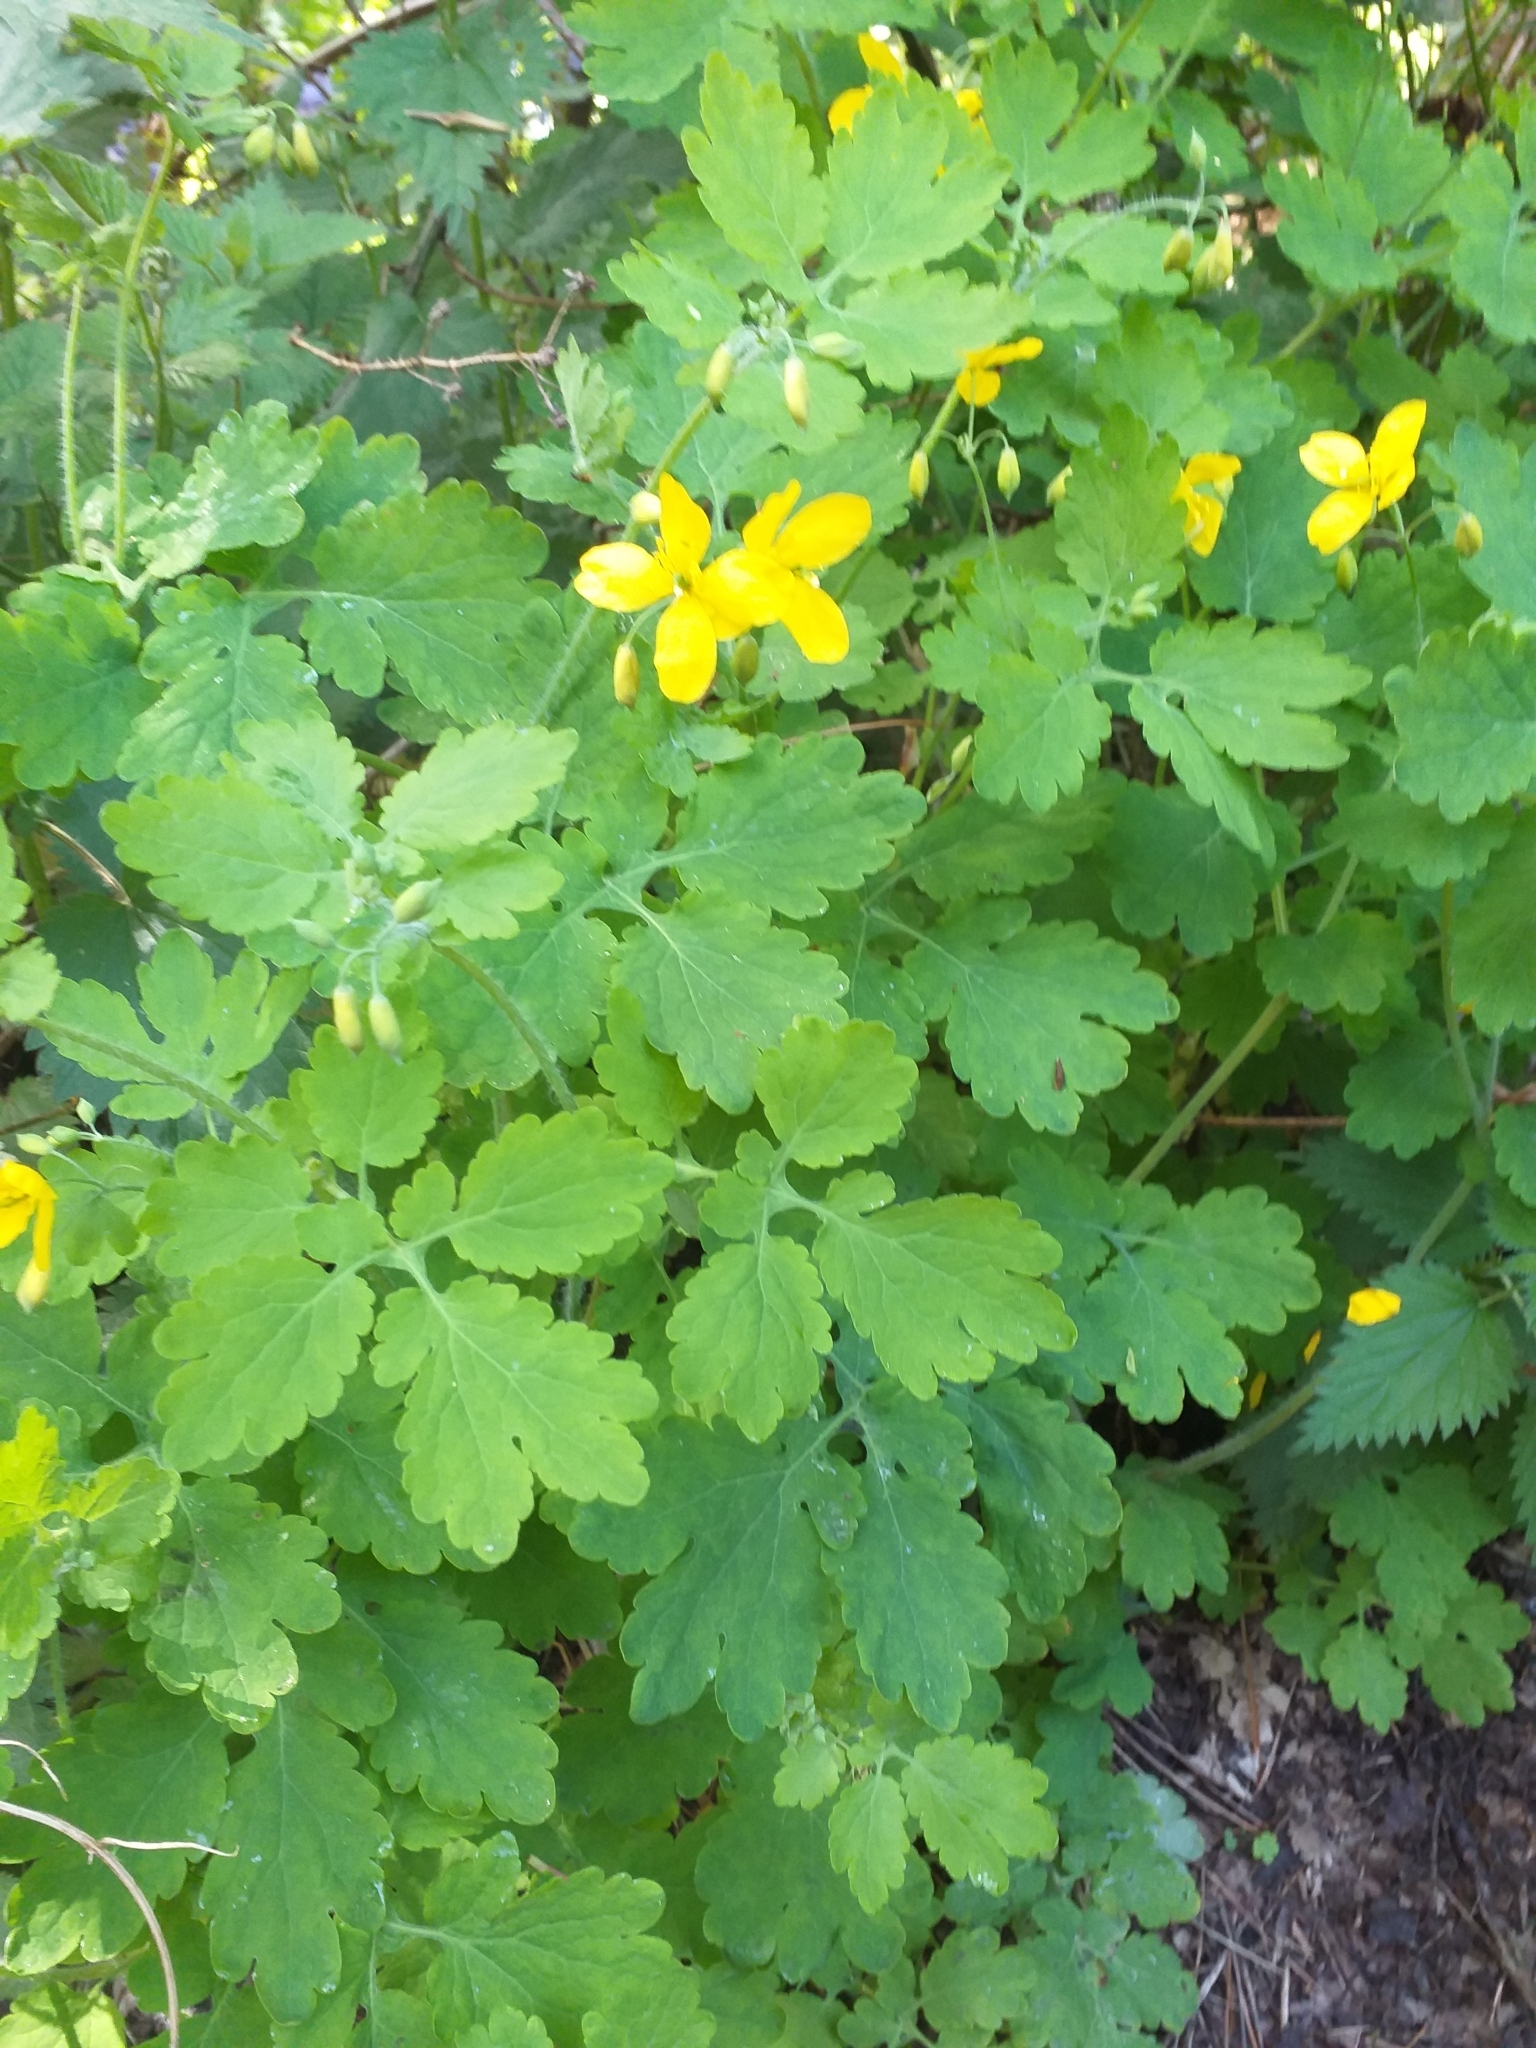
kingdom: Plantae
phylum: Tracheophyta
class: Magnoliopsida
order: Ranunculales
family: Papaveraceae
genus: Chelidonium
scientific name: Chelidonium majus
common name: Greater celandine
